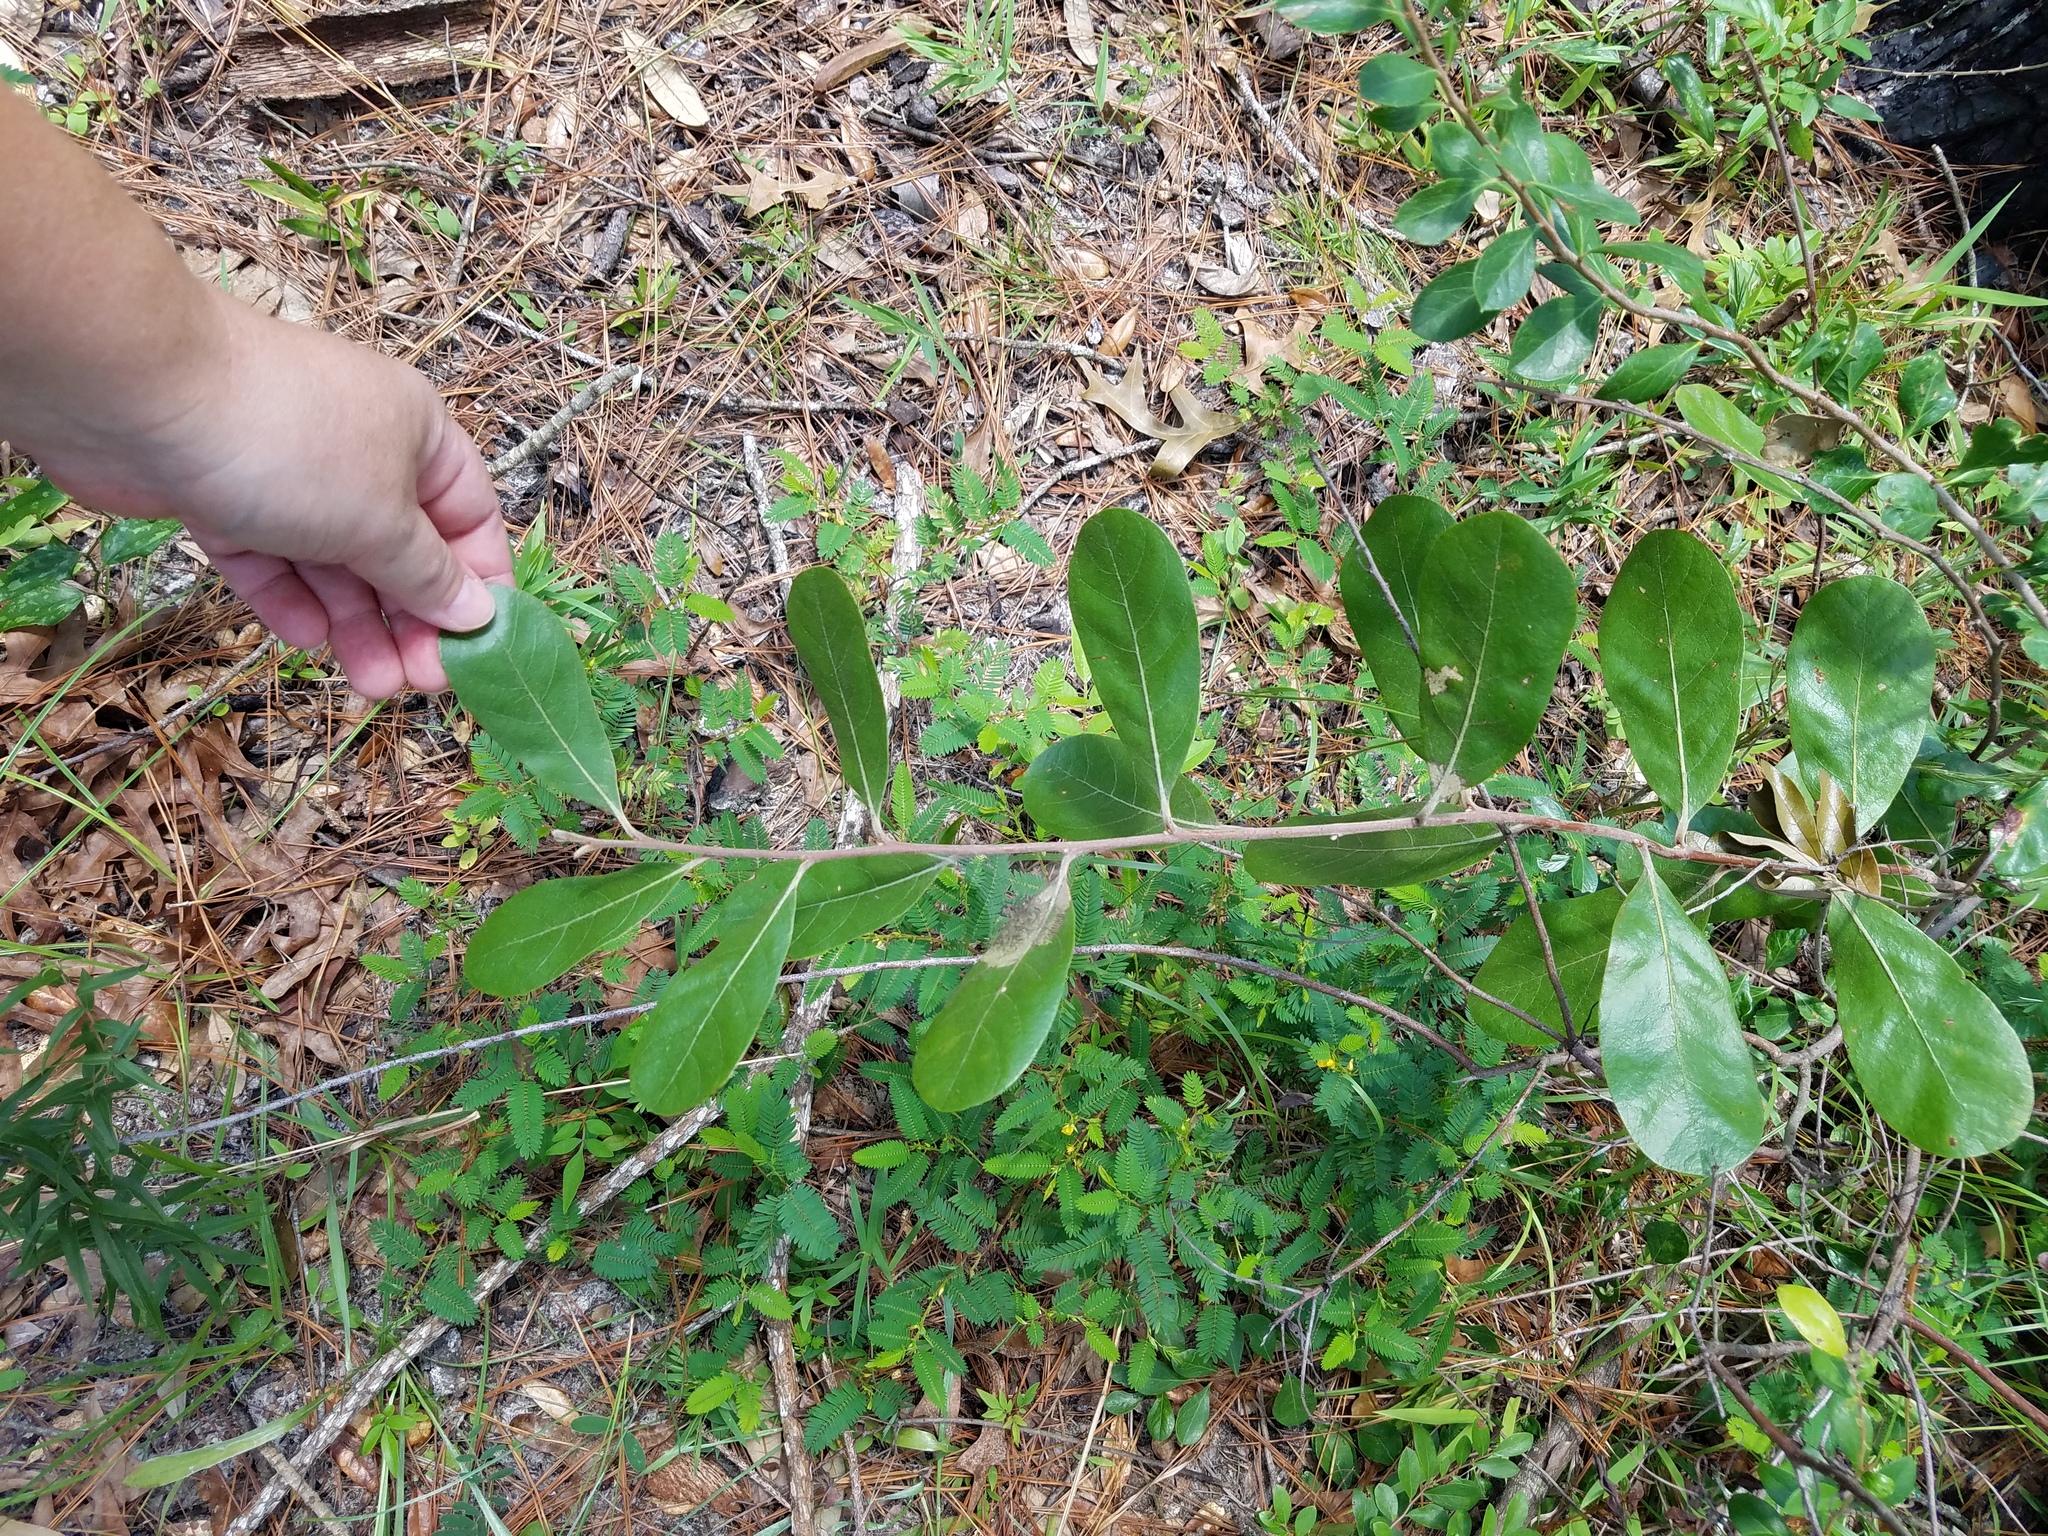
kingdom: Plantae
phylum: Tracheophyta
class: Magnoliopsida
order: Magnoliales
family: Annonaceae
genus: Asimina
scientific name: Asimina speciosa
